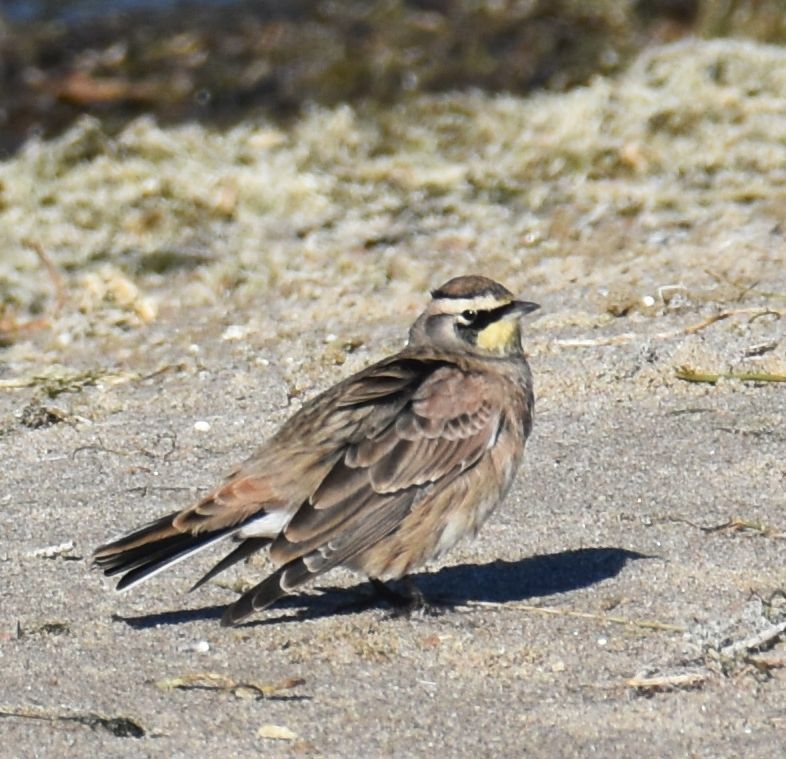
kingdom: Animalia
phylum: Chordata
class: Aves
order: Passeriformes
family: Alaudidae
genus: Eremophila
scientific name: Eremophila alpestris
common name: Horned lark
